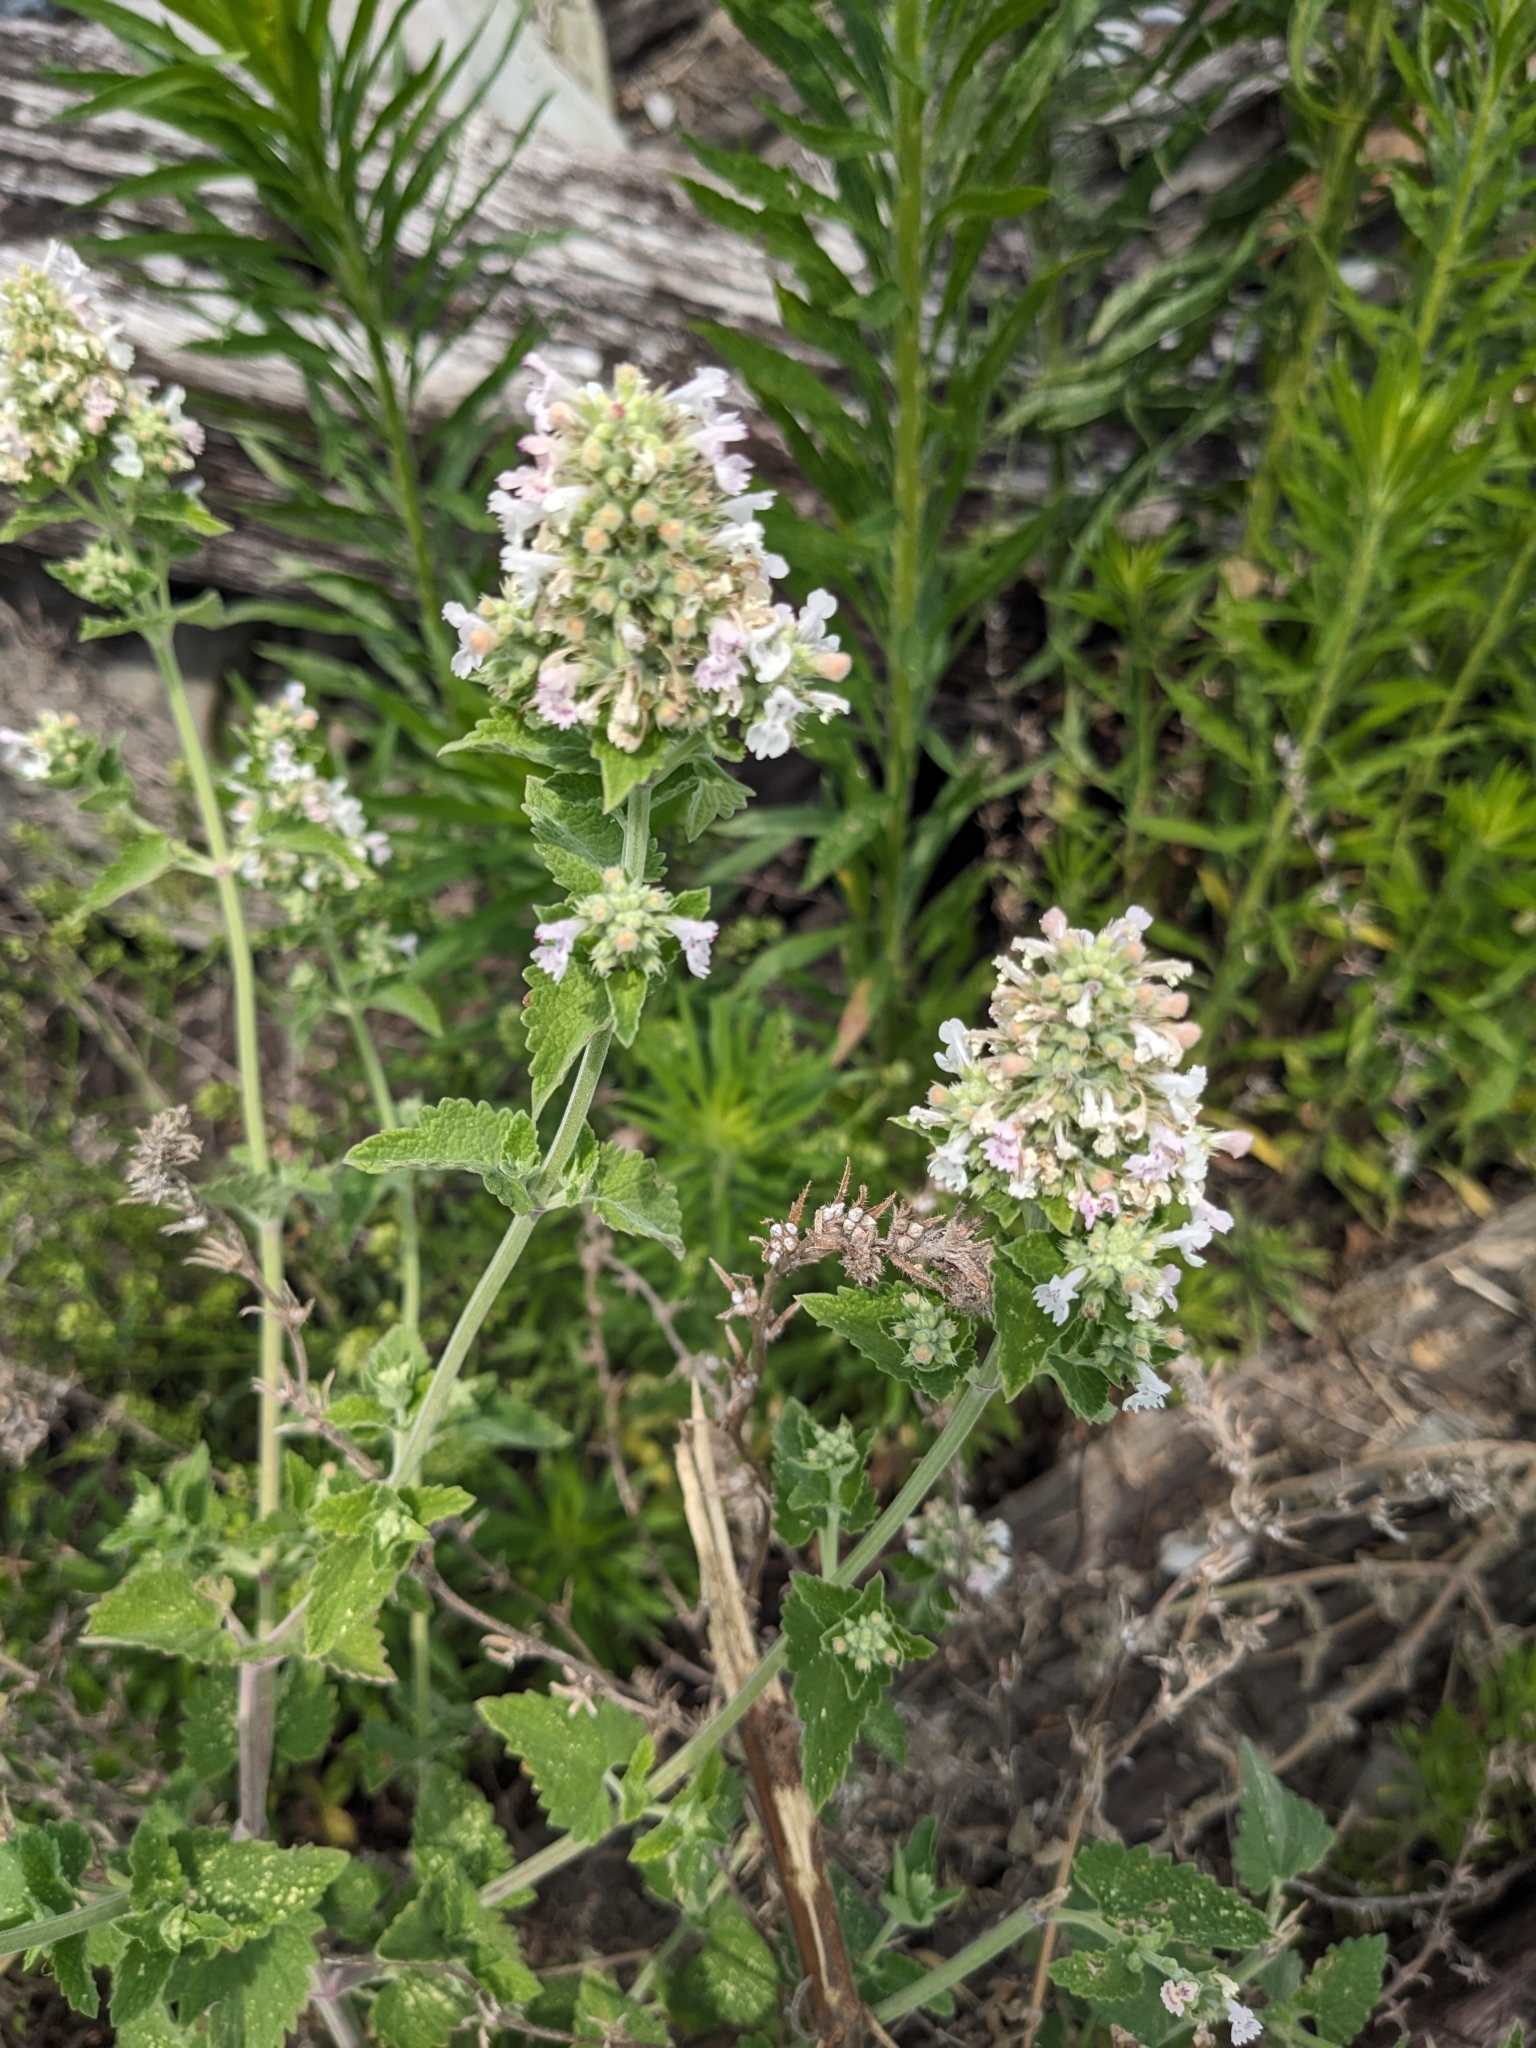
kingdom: Plantae
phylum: Tracheophyta
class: Magnoliopsida
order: Lamiales
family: Lamiaceae
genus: Nepeta
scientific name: Nepeta cataria
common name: Catnip
